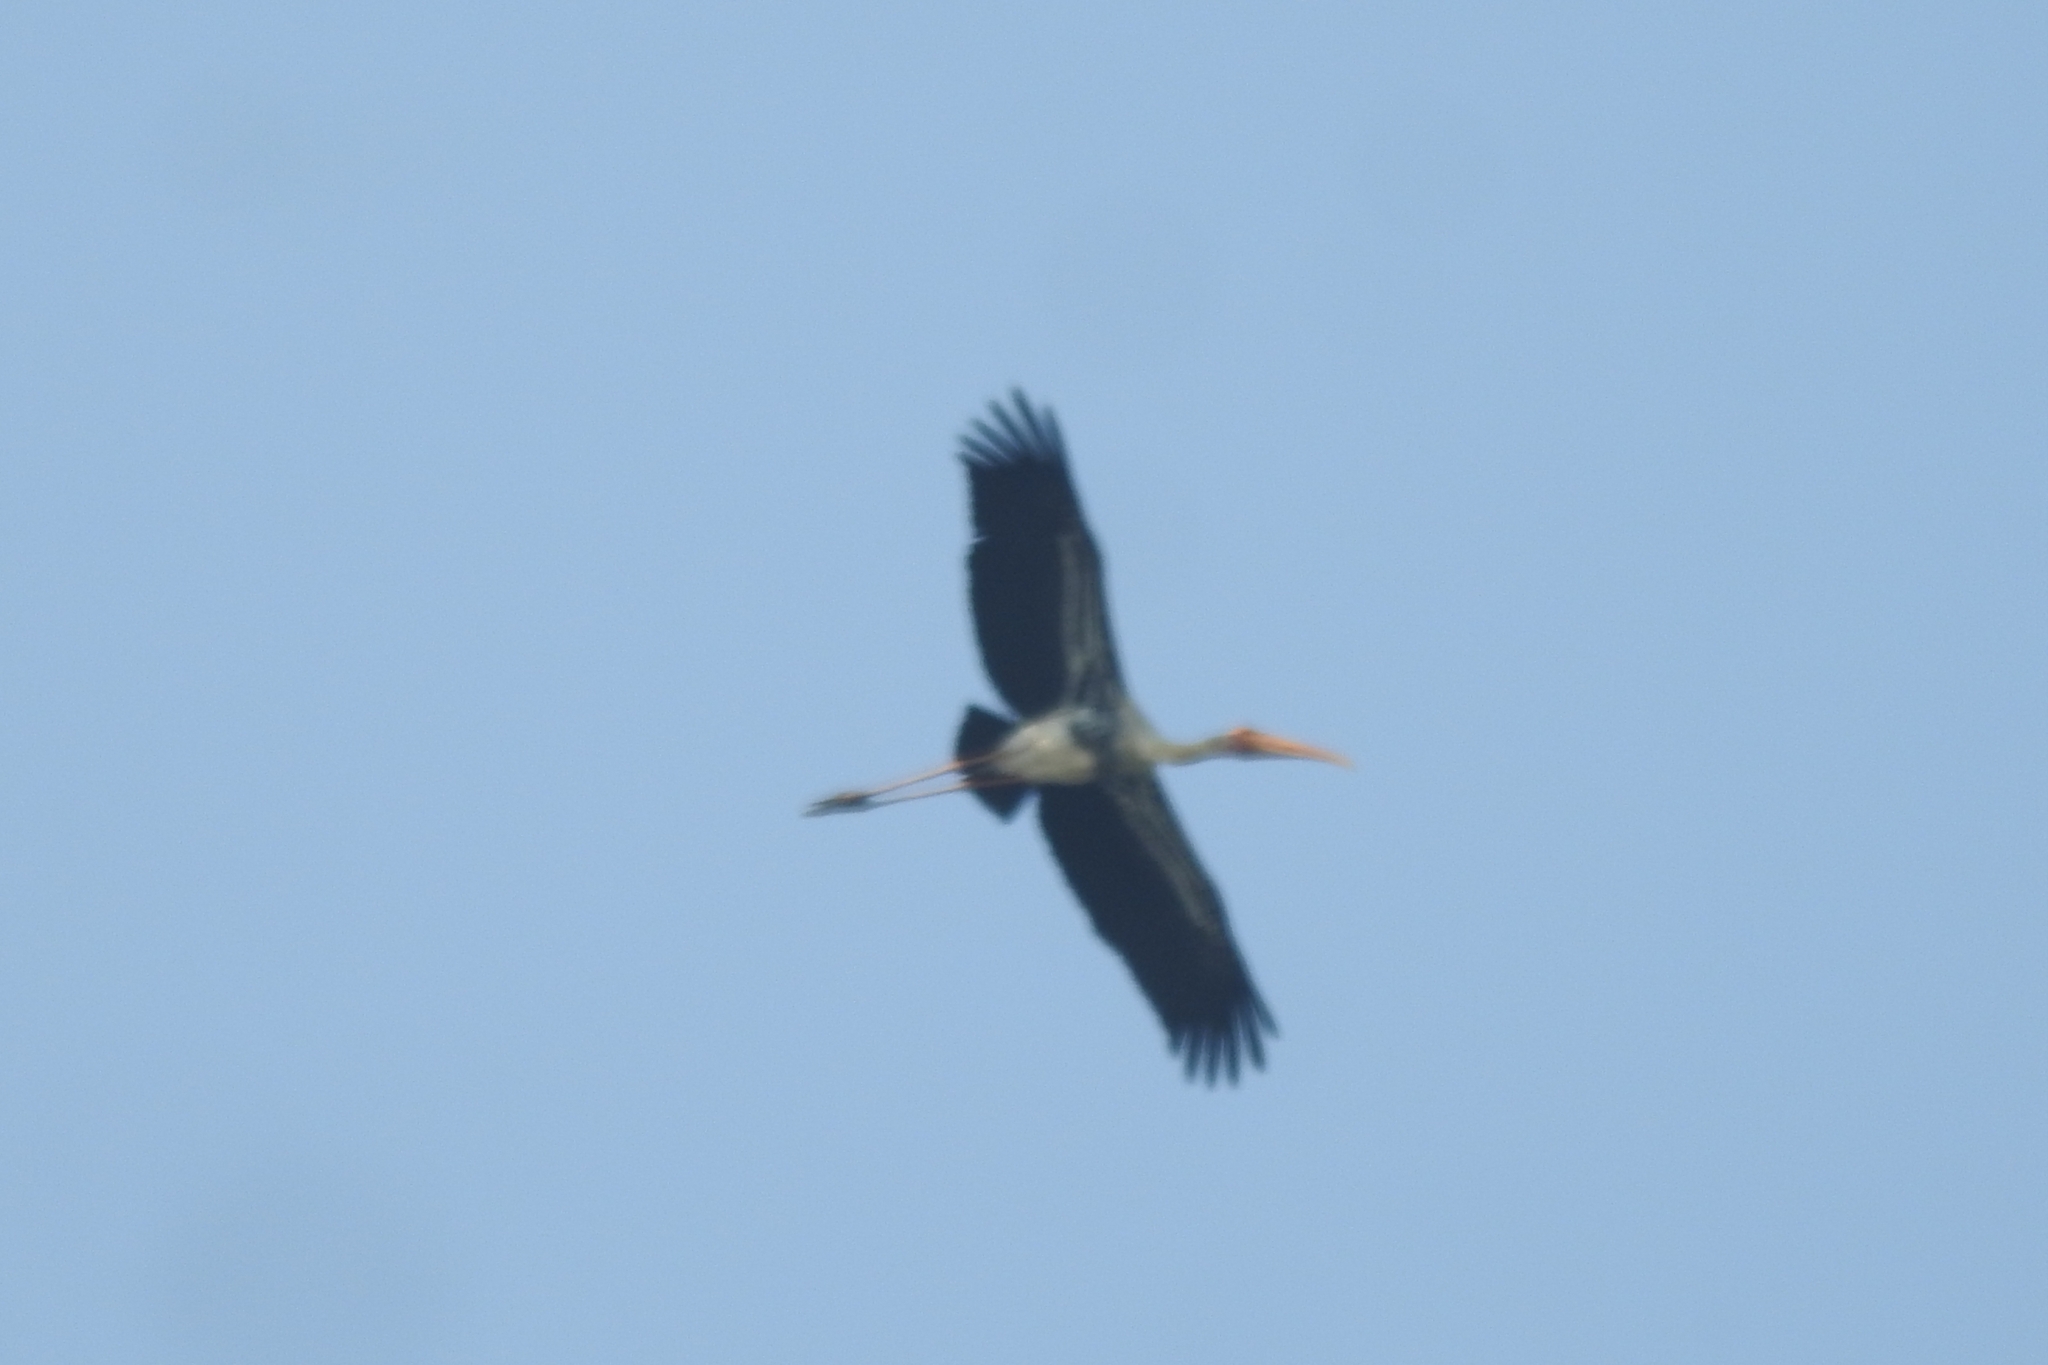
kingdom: Animalia
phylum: Chordata
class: Aves
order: Ciconiiformes
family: Ciconiidae
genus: Mycteria
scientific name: Mycteria leucocephala
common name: Painted stork
